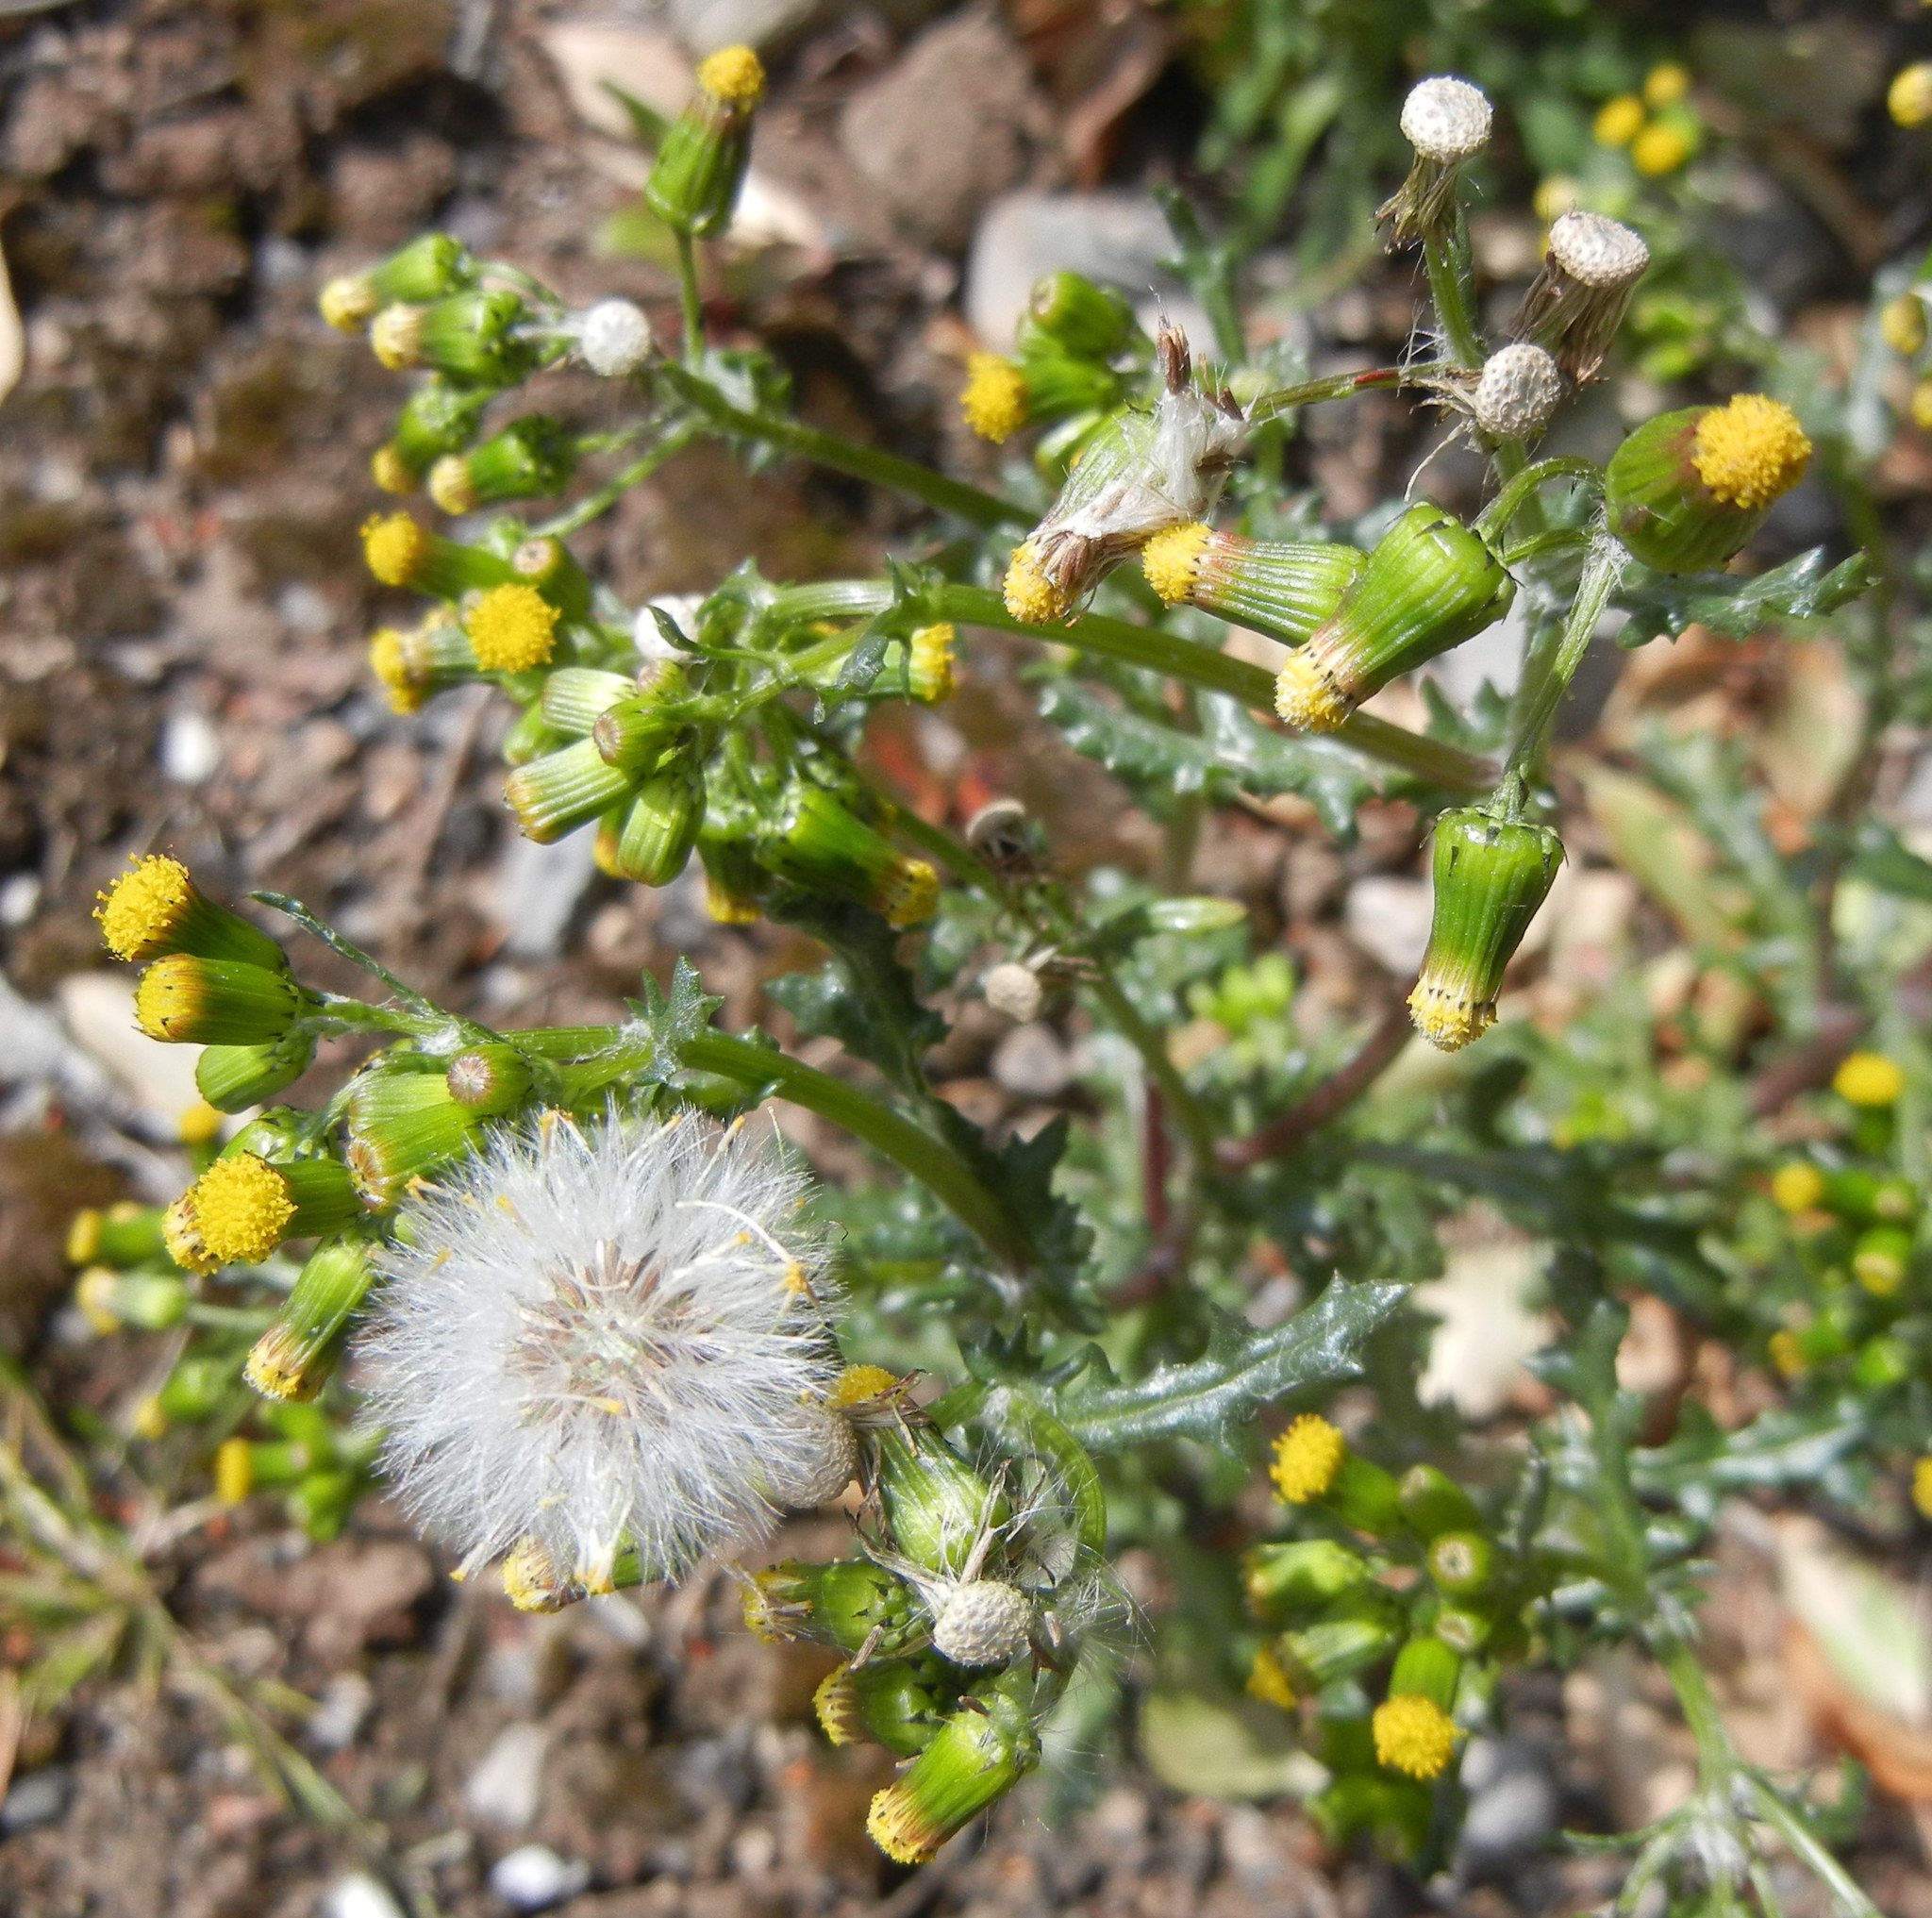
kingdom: Plantae
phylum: Tracheophyta
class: Magnoliopsida
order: Asterales
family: Asteraceae
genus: Senecio
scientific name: Senecio vulgaris
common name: Old-man-in-the-spring
